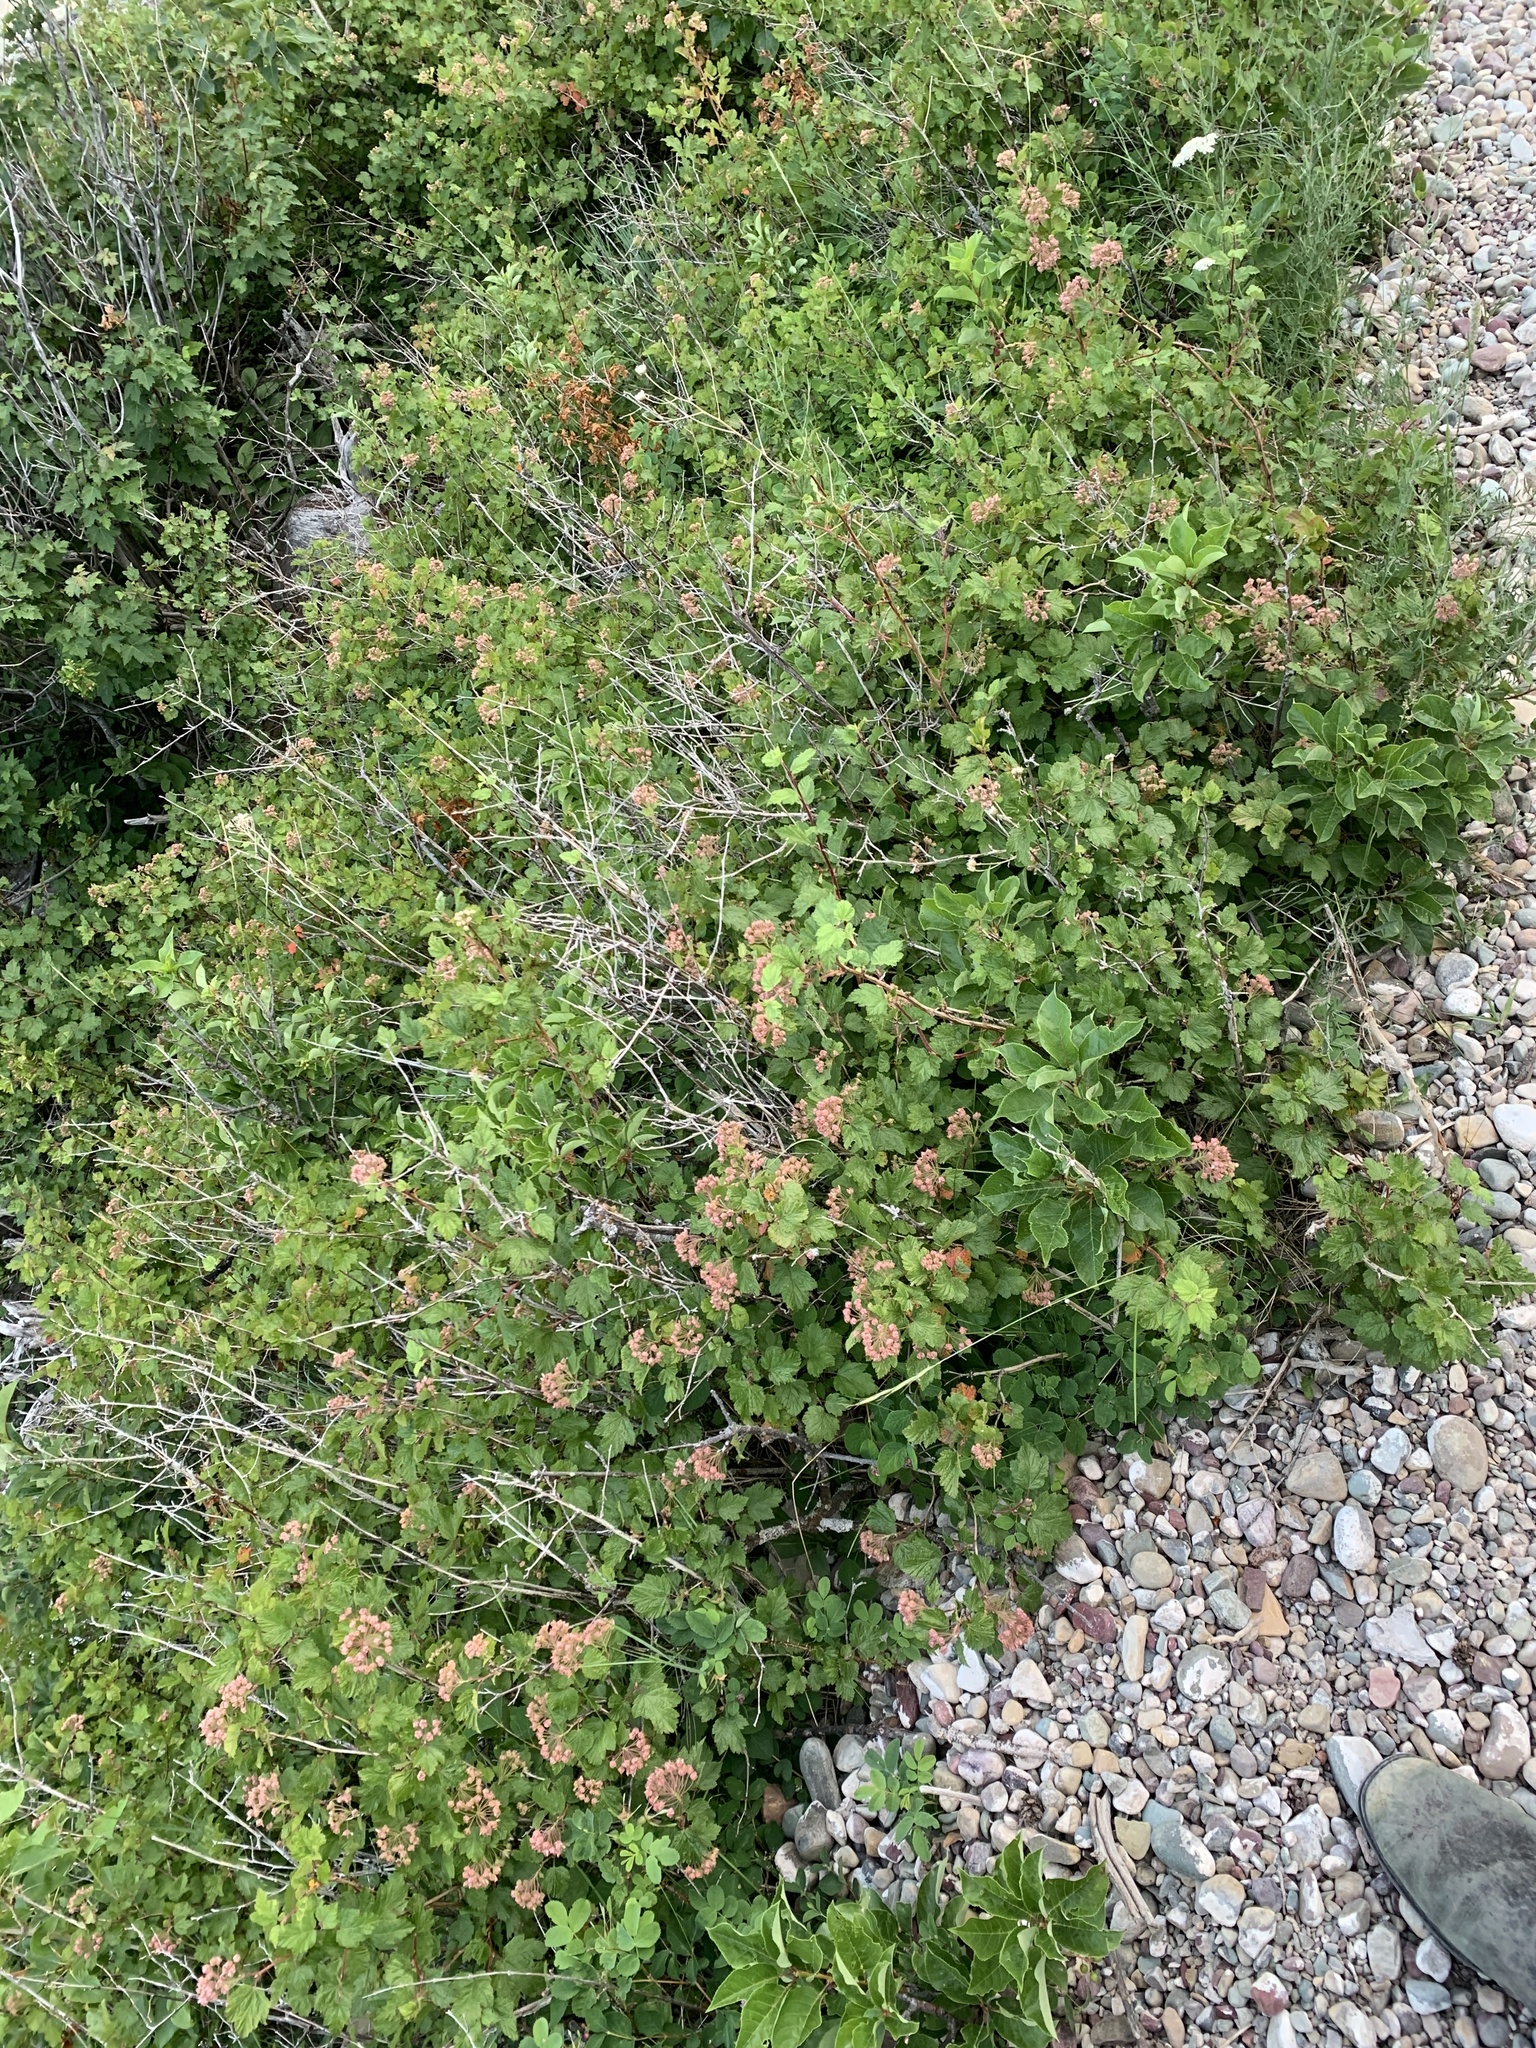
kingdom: Plantae
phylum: Tracheophyta
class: Magnoliopsida
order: Rosales
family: Rosaceae
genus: Physocarpus
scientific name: Physocarpus malvaceus
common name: Mallow ninebark
